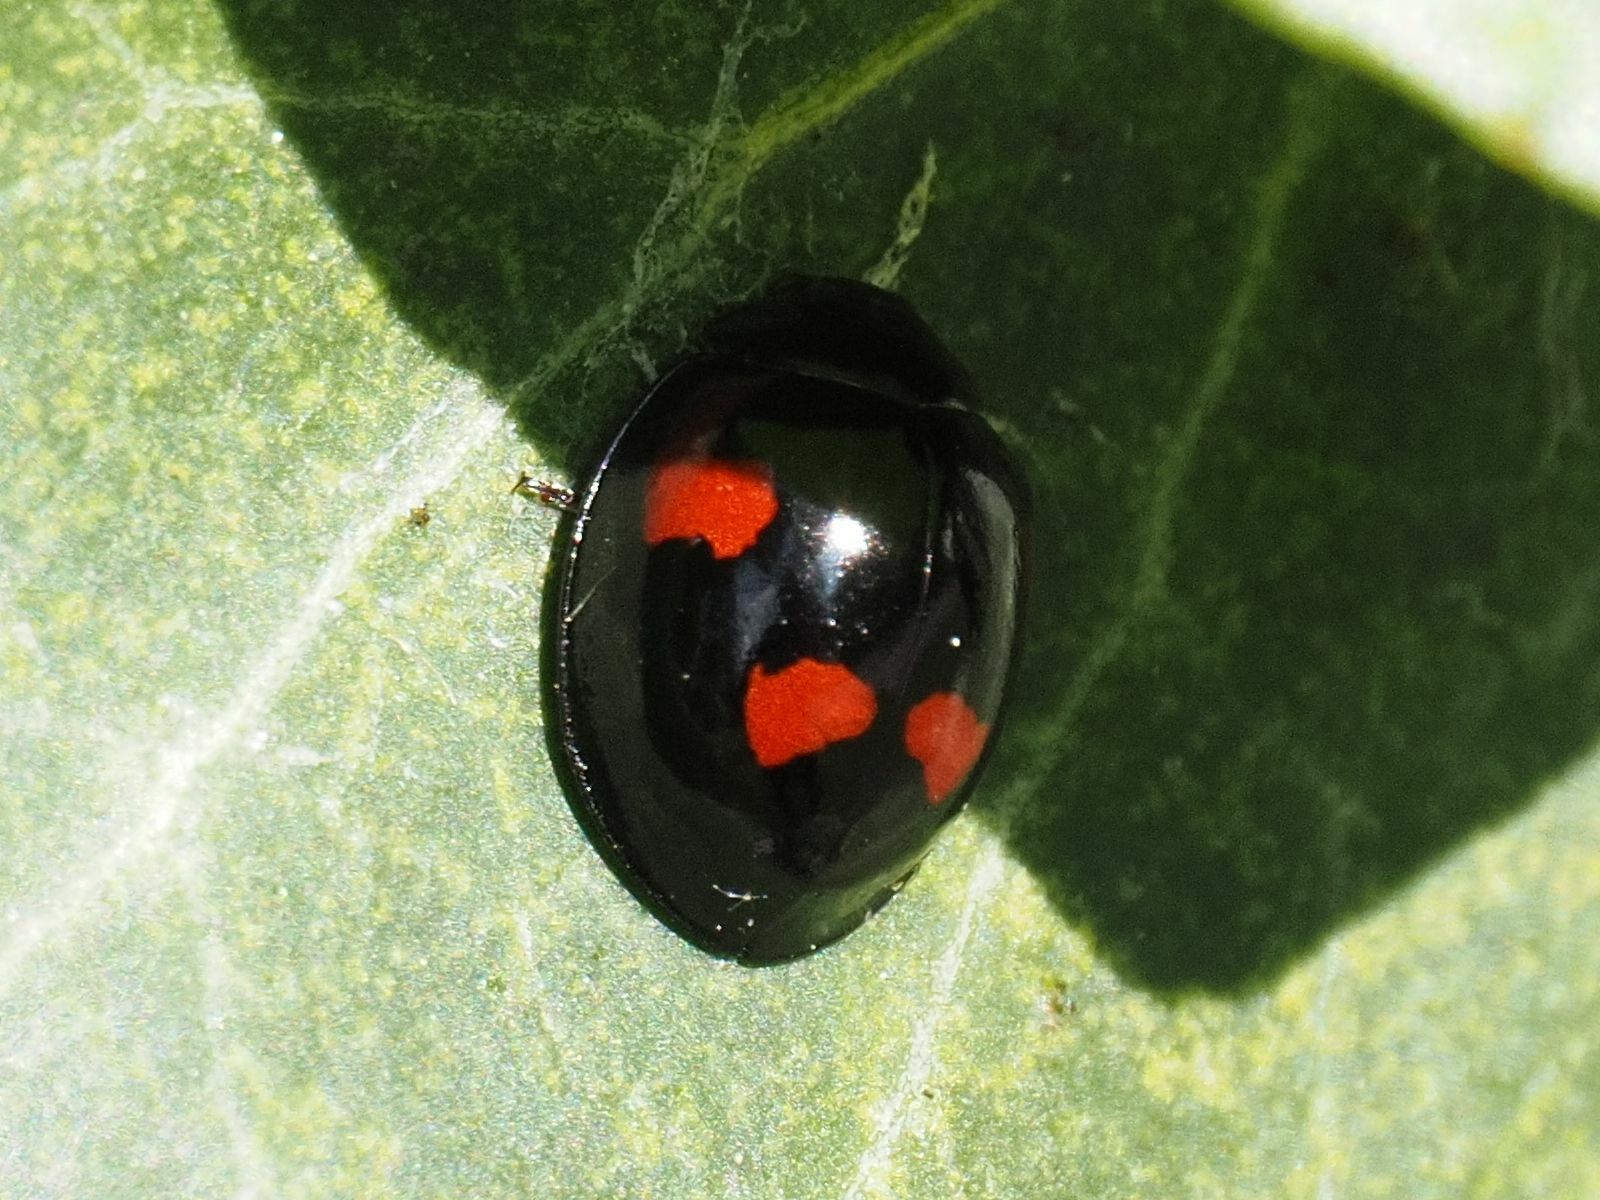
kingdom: Animalia
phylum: Arthropoda
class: Insecta
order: Coleoptera
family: Coccinellidae
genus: Brumus
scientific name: Brumus quadripustulatus
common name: Ladybird beetle
